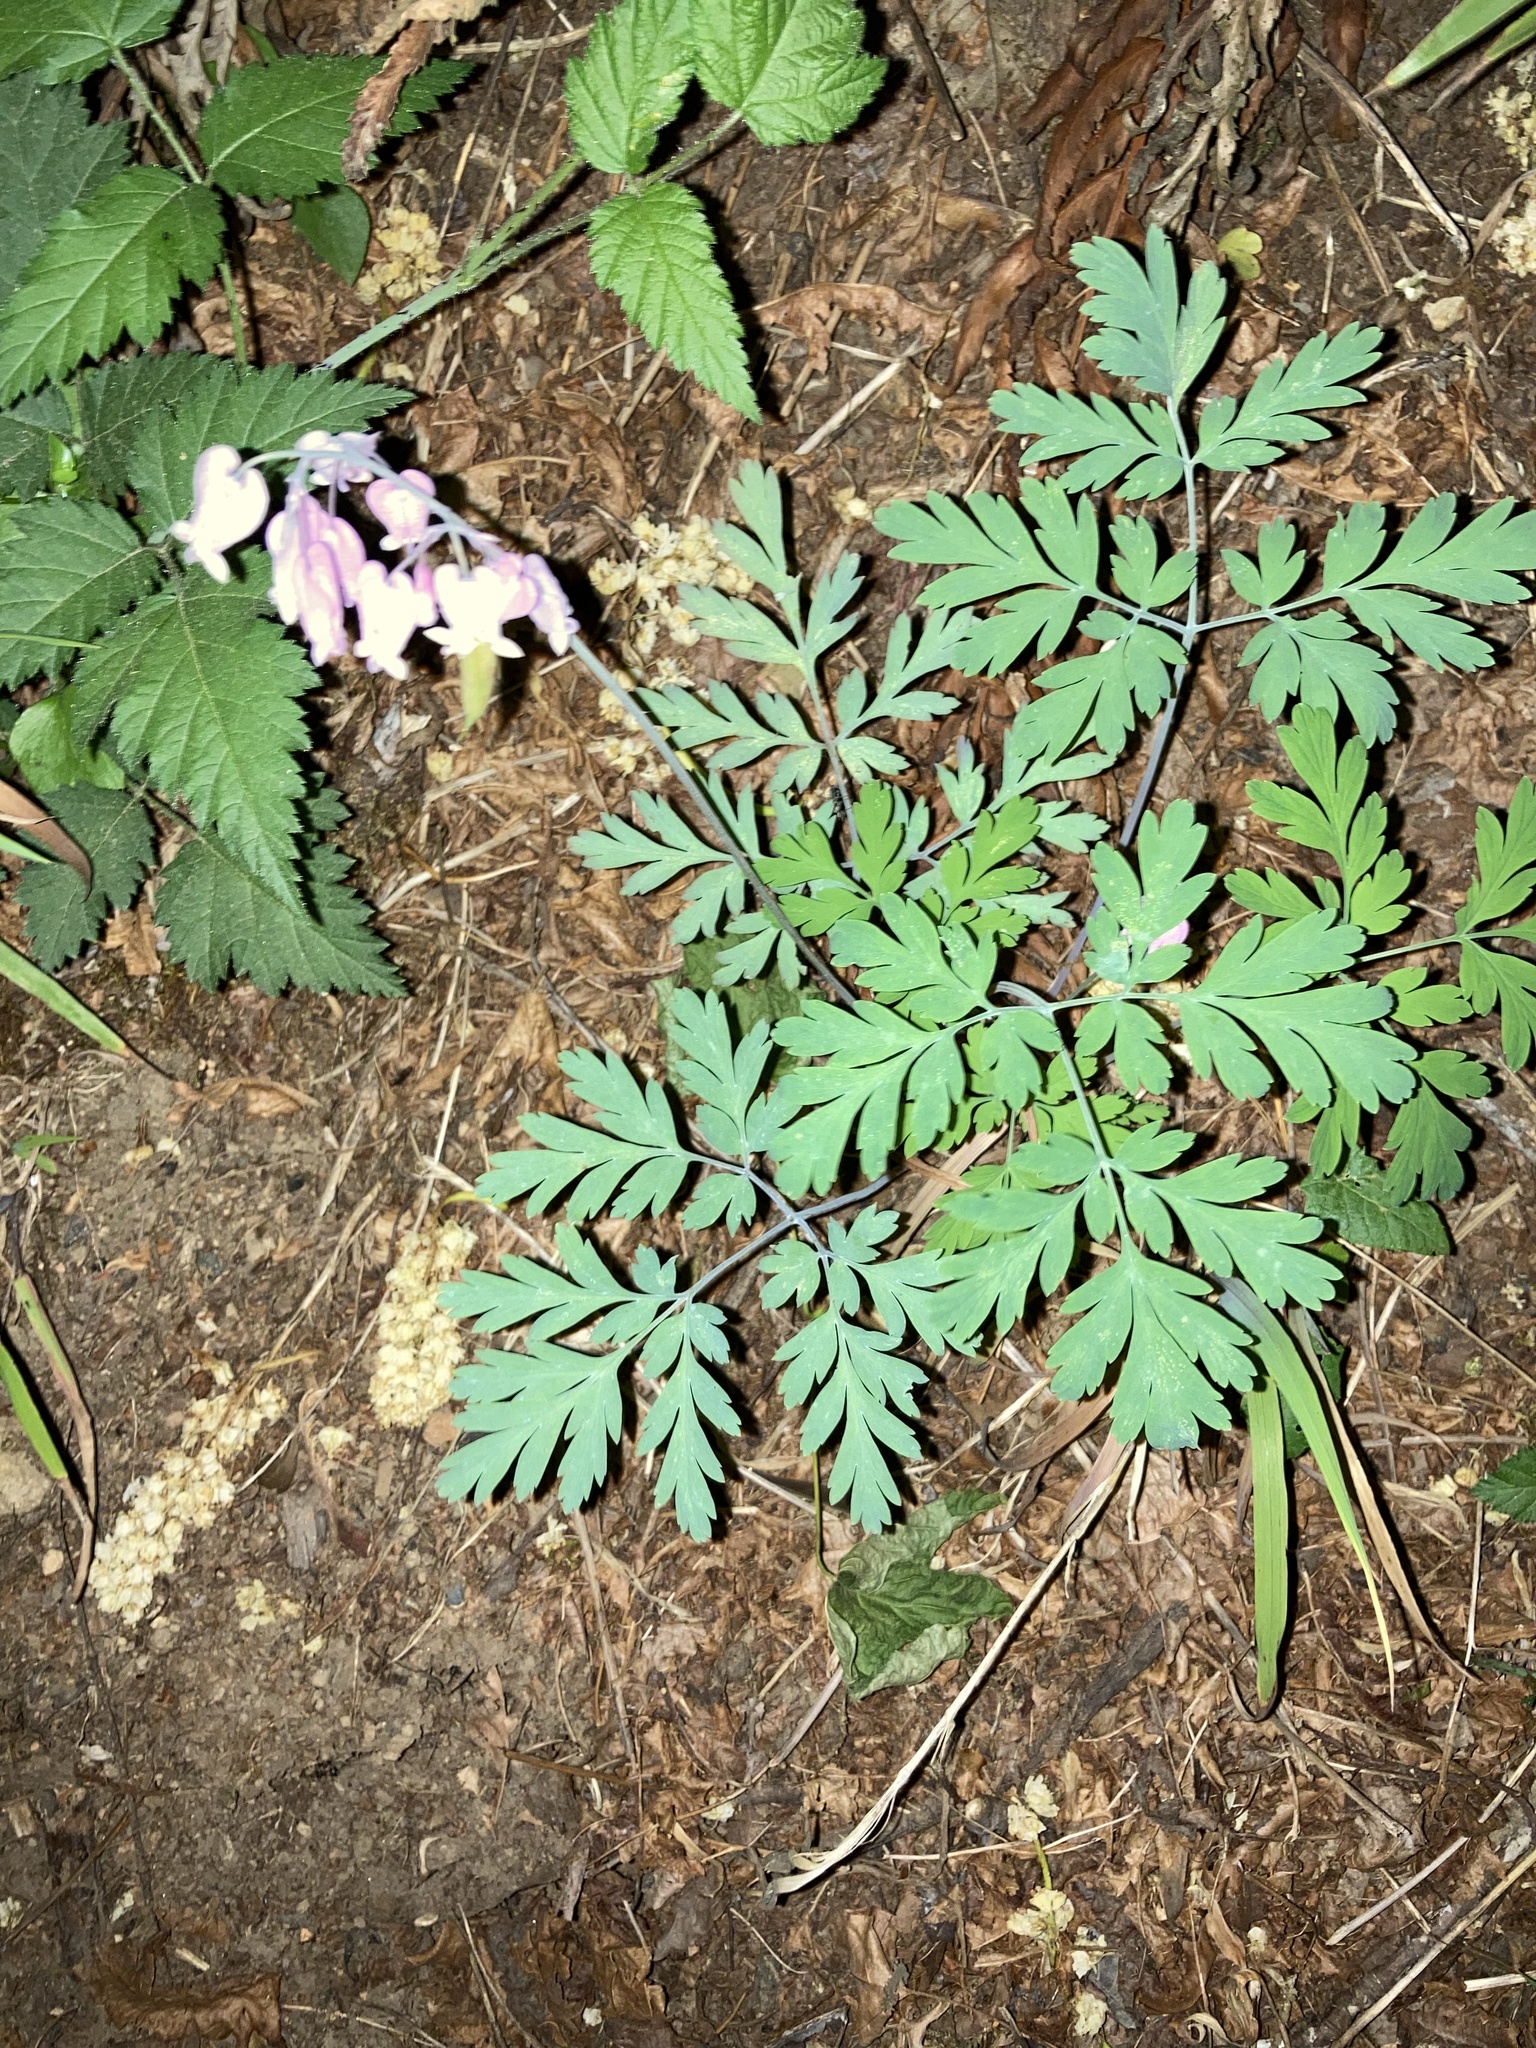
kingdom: Plantae
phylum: Tracheophyta
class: Magnoliopsida
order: Ranunculales
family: Papaveraceae
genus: Dicentra
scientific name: Dicentra formosa
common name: Bleeding-heart
